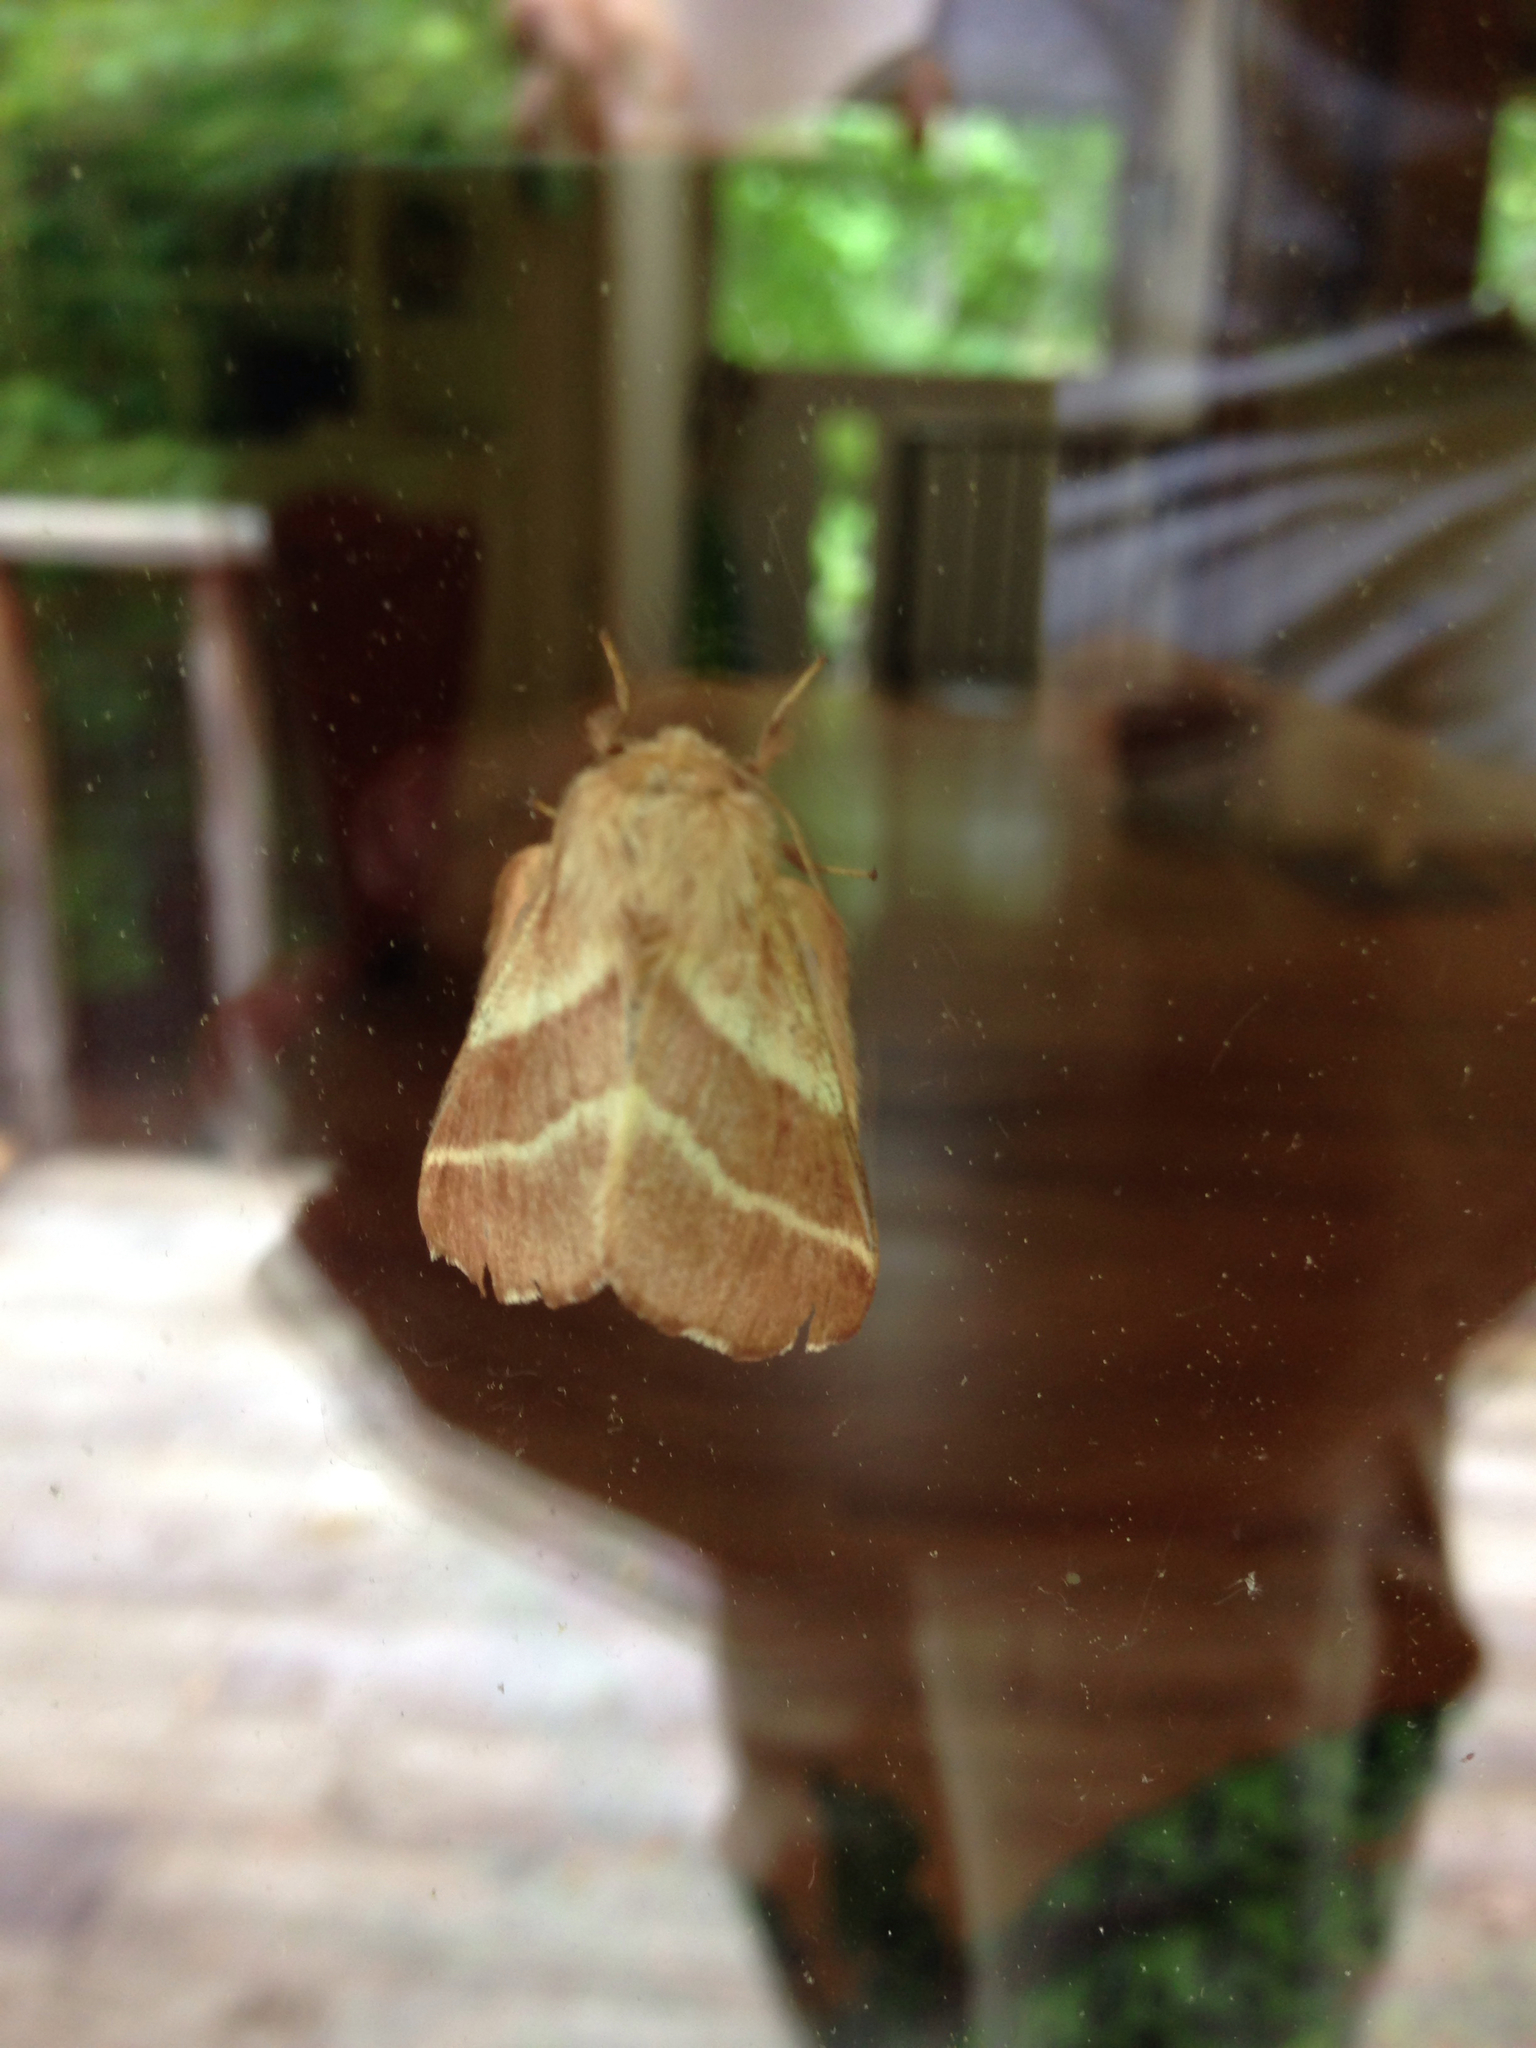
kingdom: Animalia
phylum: Arthropoda
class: Insecta
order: Lepidoptera
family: Lasiocampidae
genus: Malacosoma
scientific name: Malacosoma americana
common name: Eastern tent caterpillar moth
